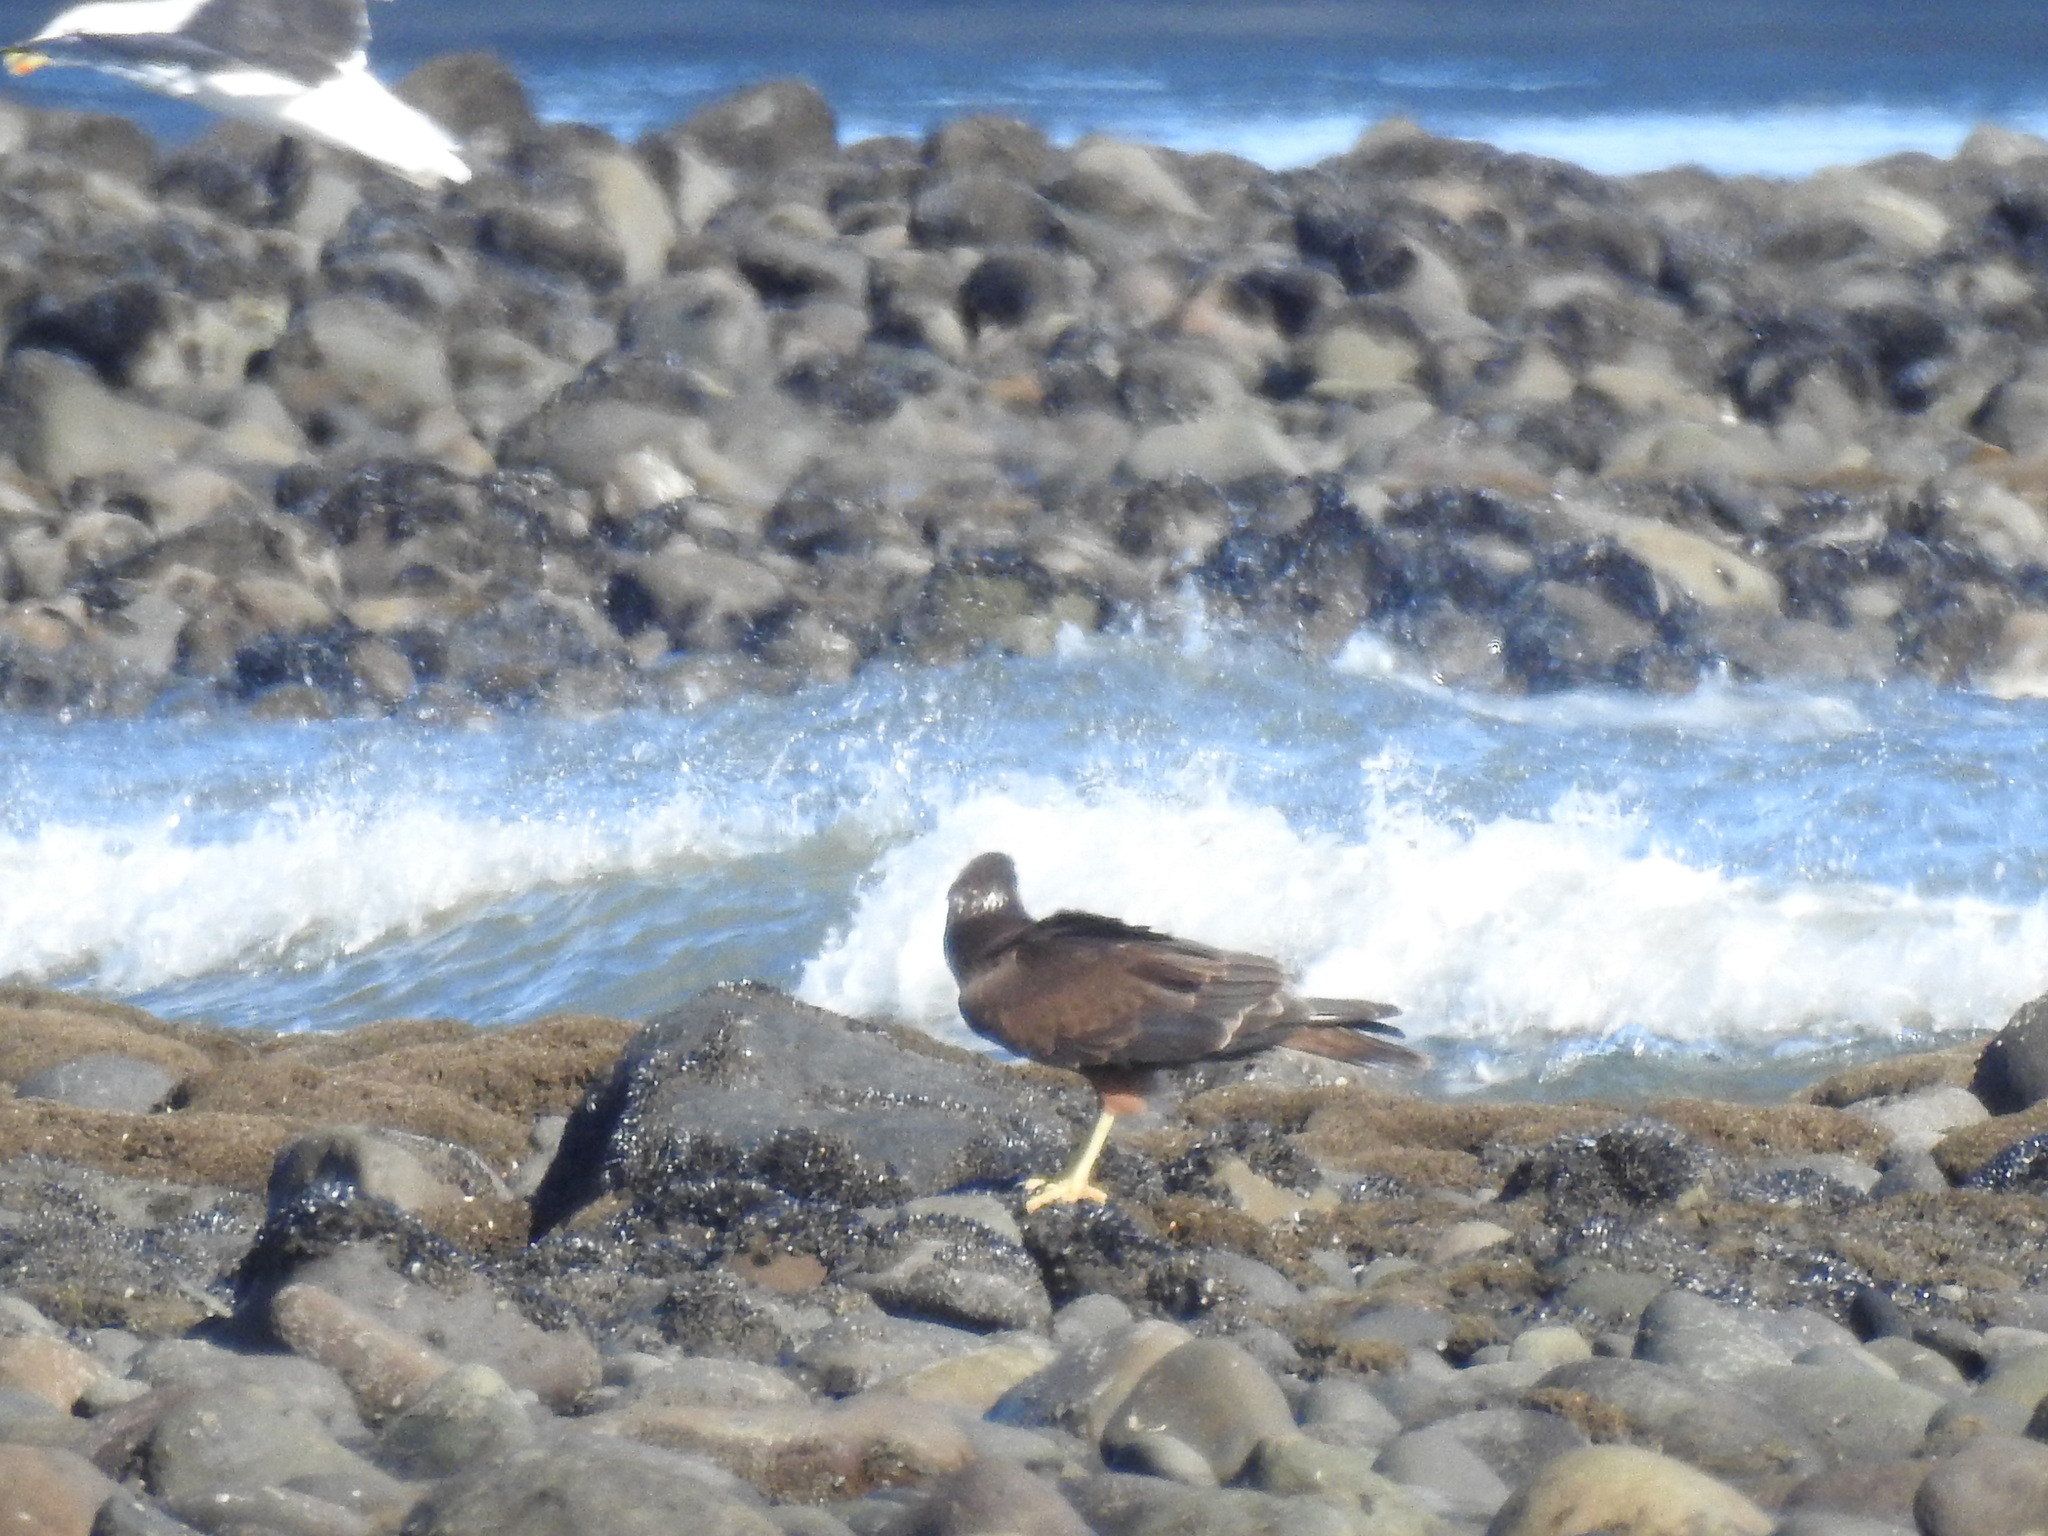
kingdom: Animalia
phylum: Chordata
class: Aves
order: Accipitriformes
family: Accipitridae
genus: Circus
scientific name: Circus approximans
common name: Swamp harrier
